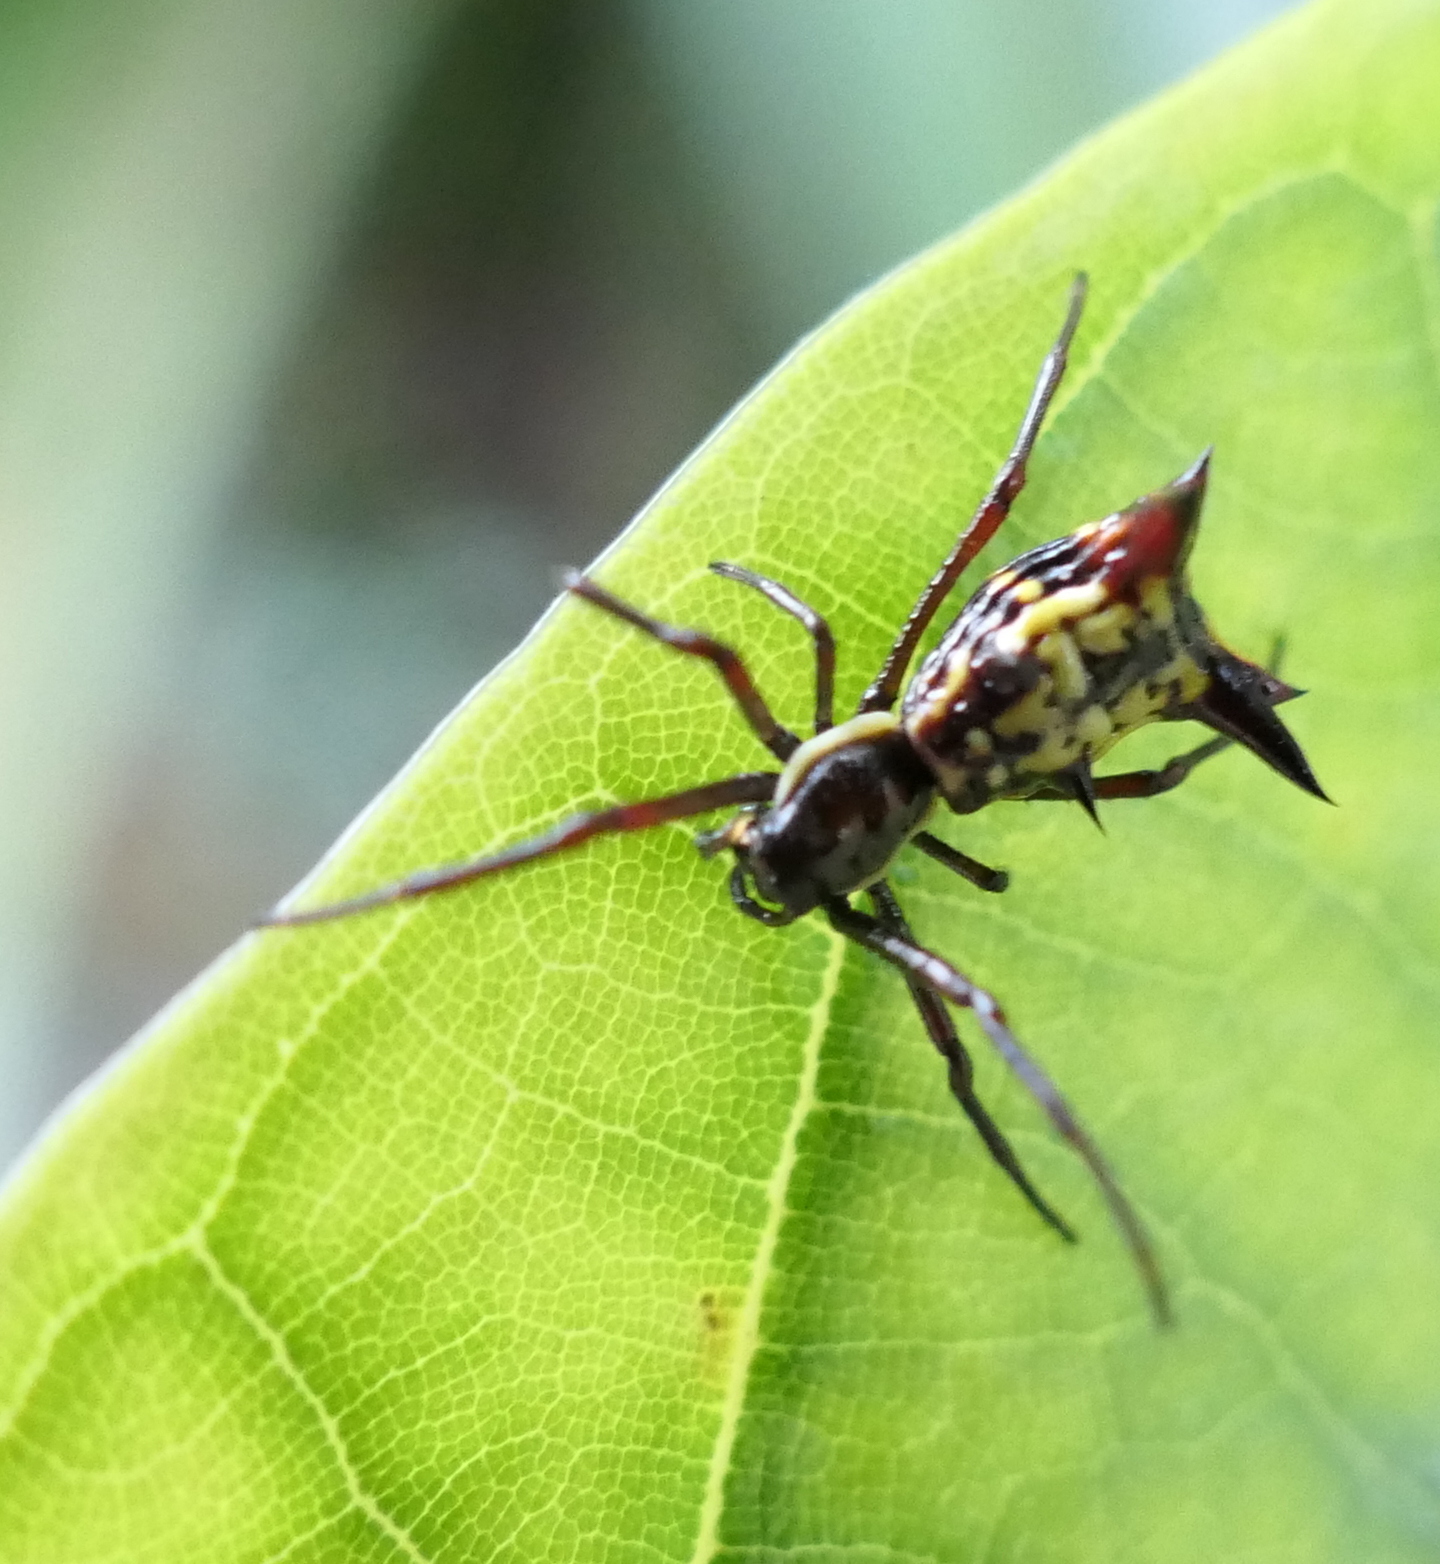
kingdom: Animalia
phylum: Arthropoda
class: Arachnida
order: Araneae
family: Araneidae
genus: Micrathena
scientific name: Micrathena fissispina
